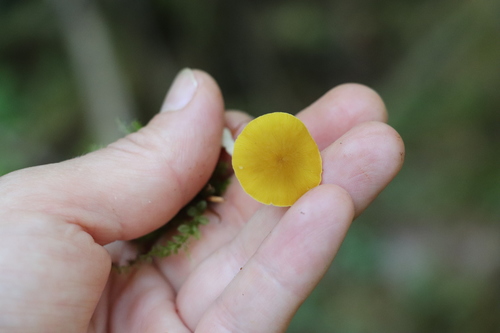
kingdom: Fungi
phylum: Basidiomycota
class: Agaricomycetes
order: Agaricales
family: Pluteaceae
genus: Pluteus
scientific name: Pluteus chrysophlebius
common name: Yellow deer mushroom
